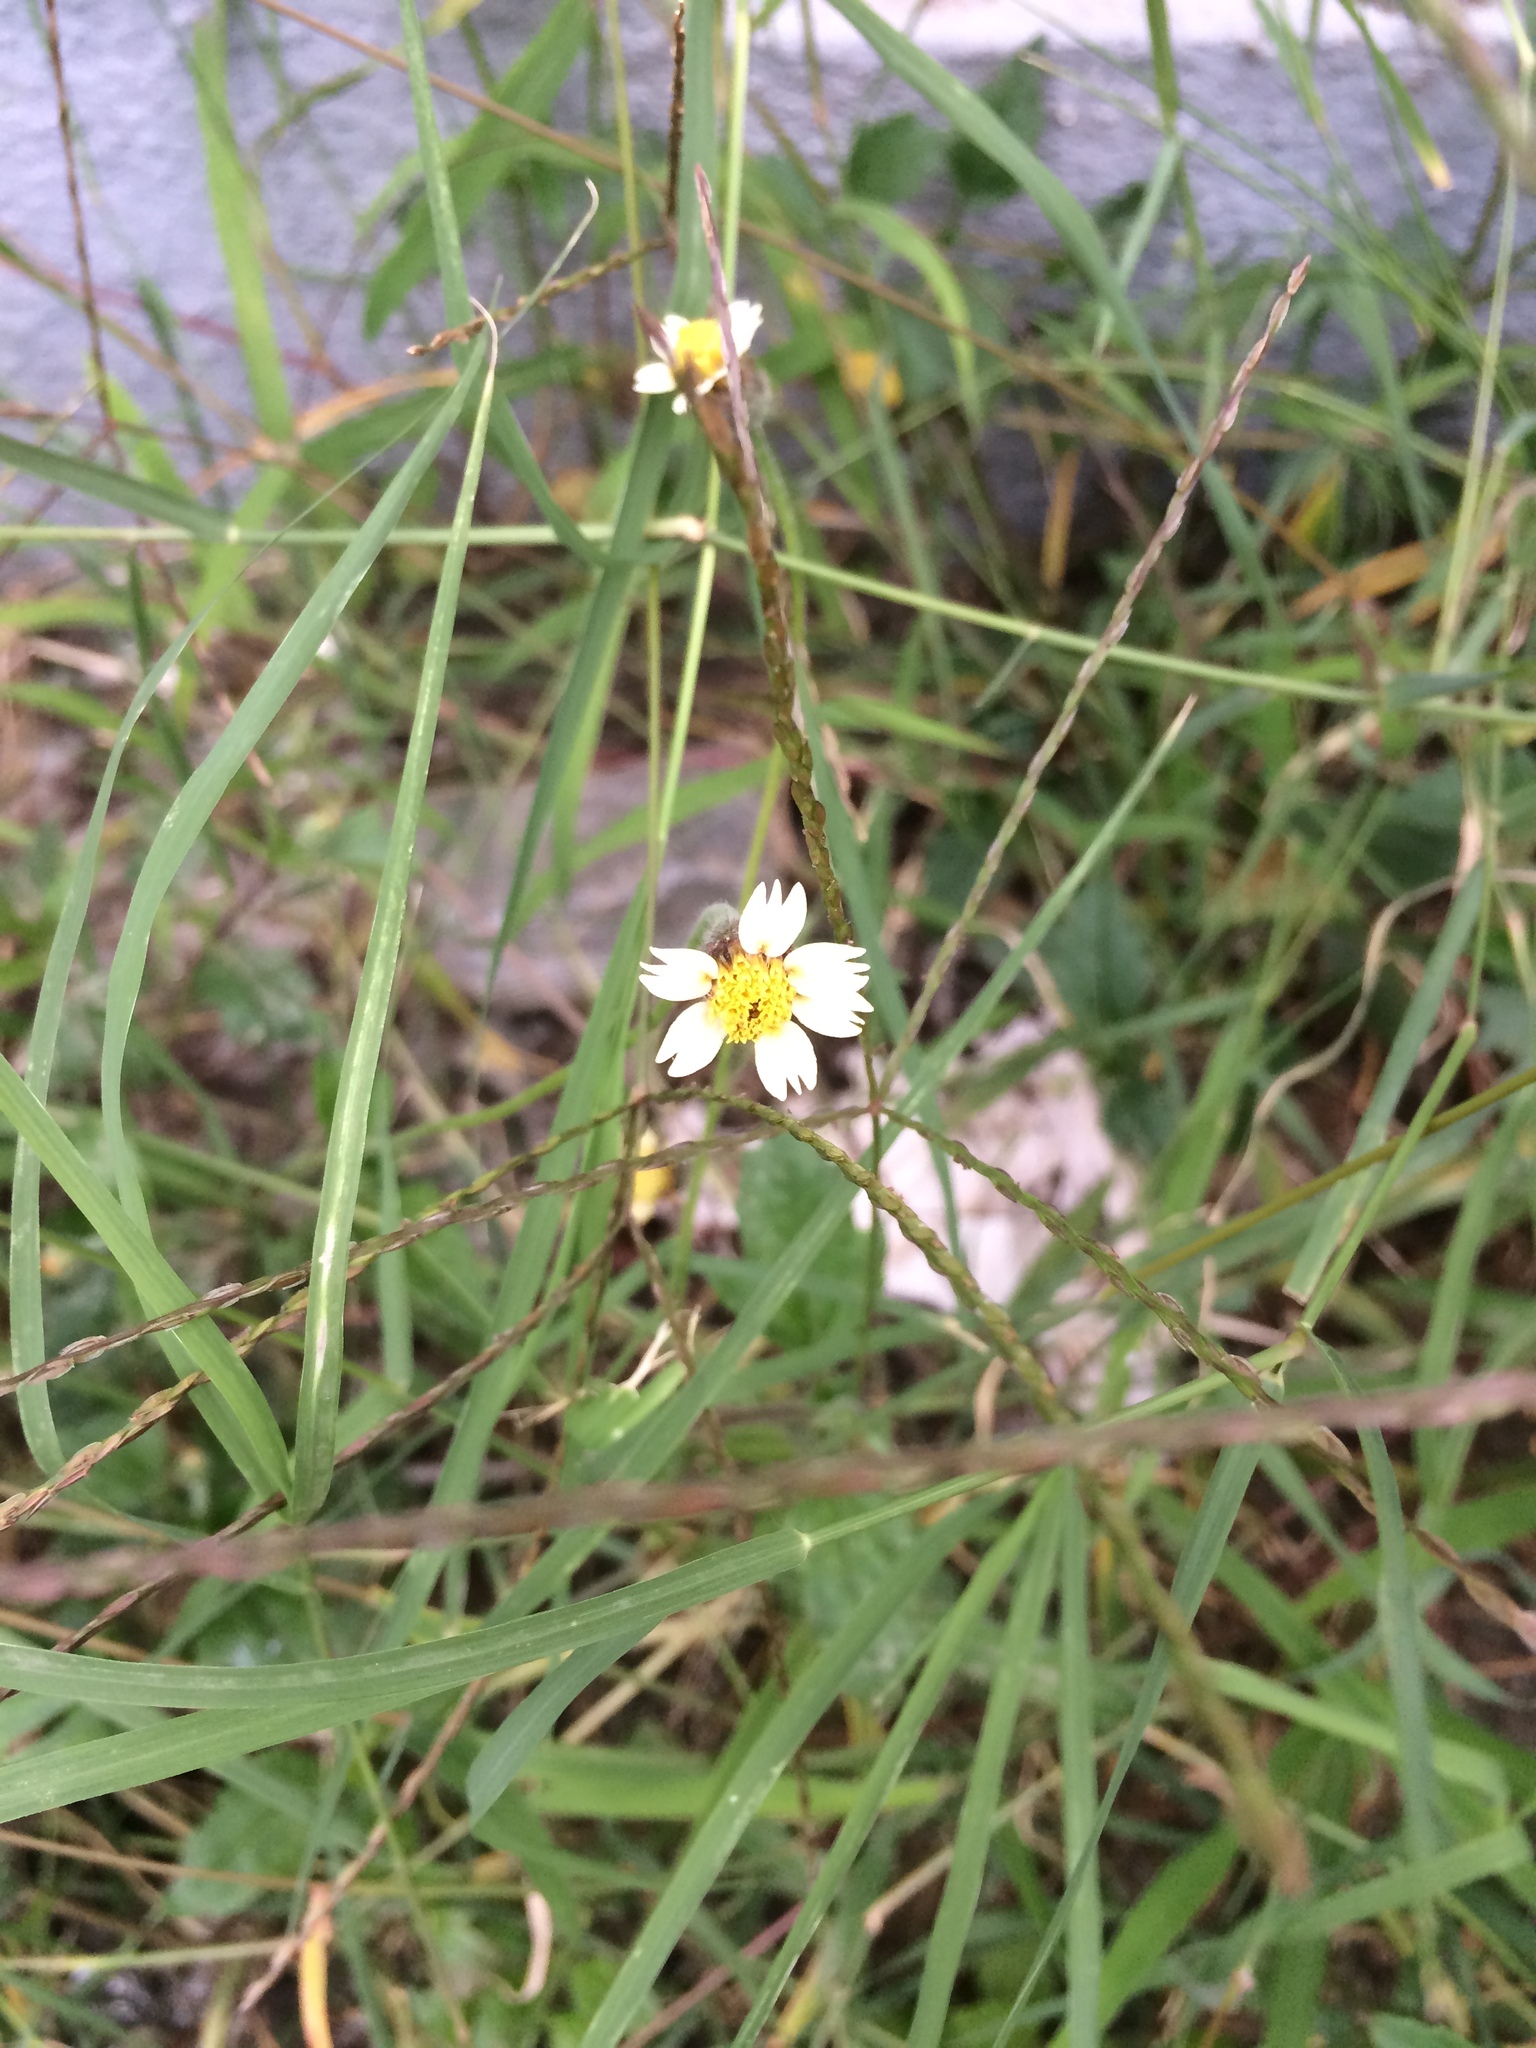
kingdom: Plantae
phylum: Tracheophyta
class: Magnoliopsida
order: Asterales
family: Asteraceae
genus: Tridax
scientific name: Tridax procumbens
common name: Coatbuttons
